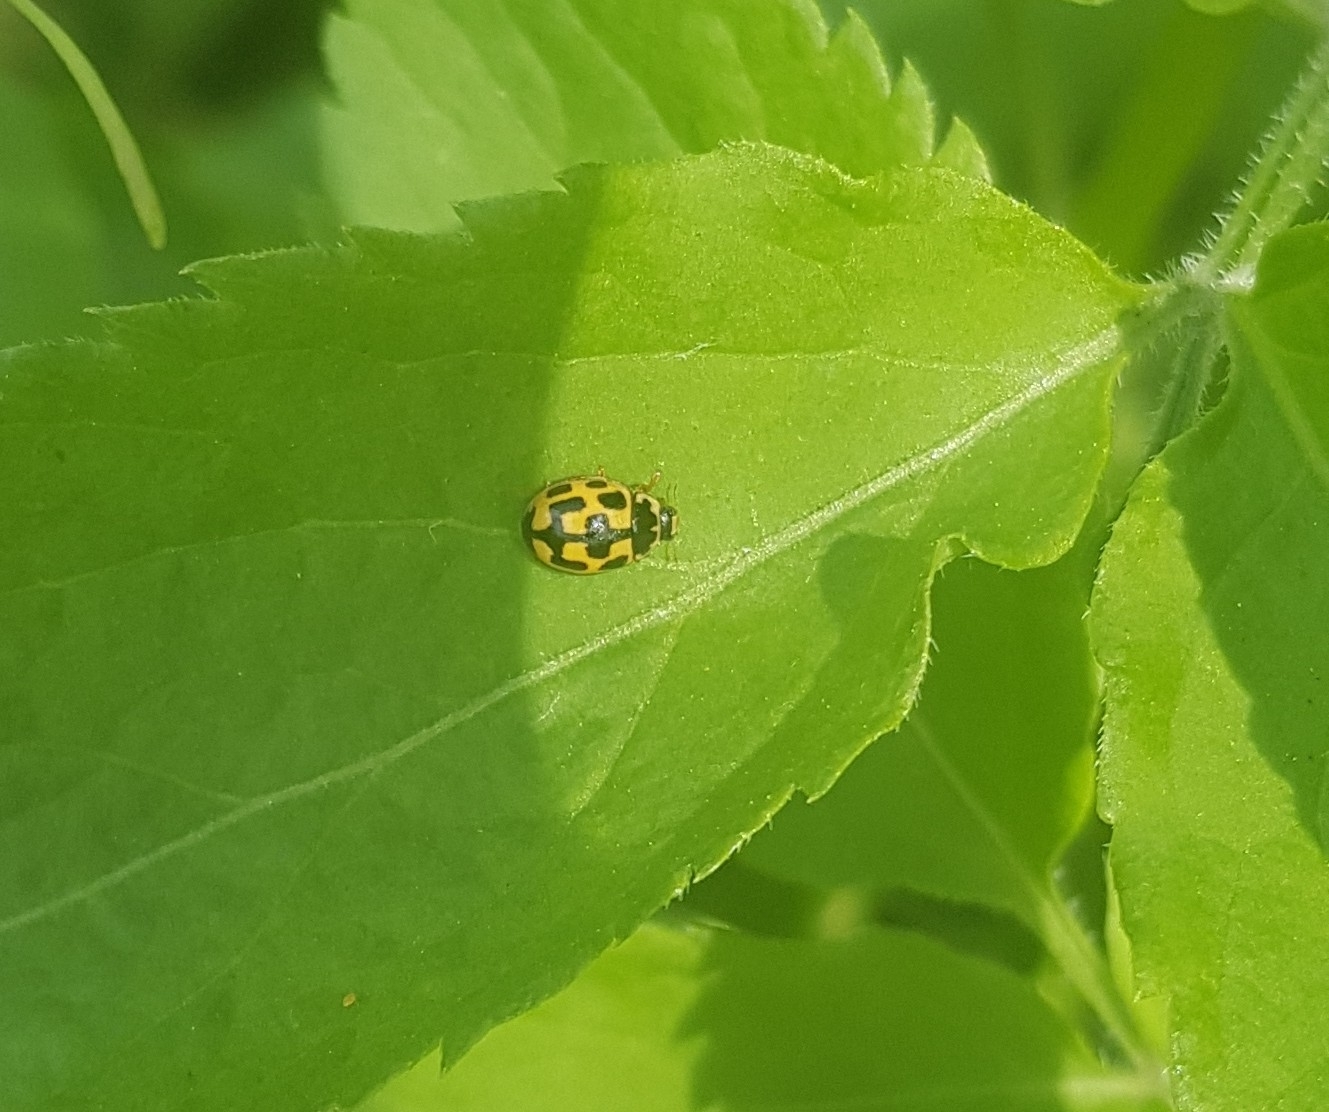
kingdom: Animalia
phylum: Arthropoda
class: Insecta
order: Coleoptera
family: Coccinellidae
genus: Propylaea
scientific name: Propylaea quatuordecimpunctata
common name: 14-spotted ladybird beetle
